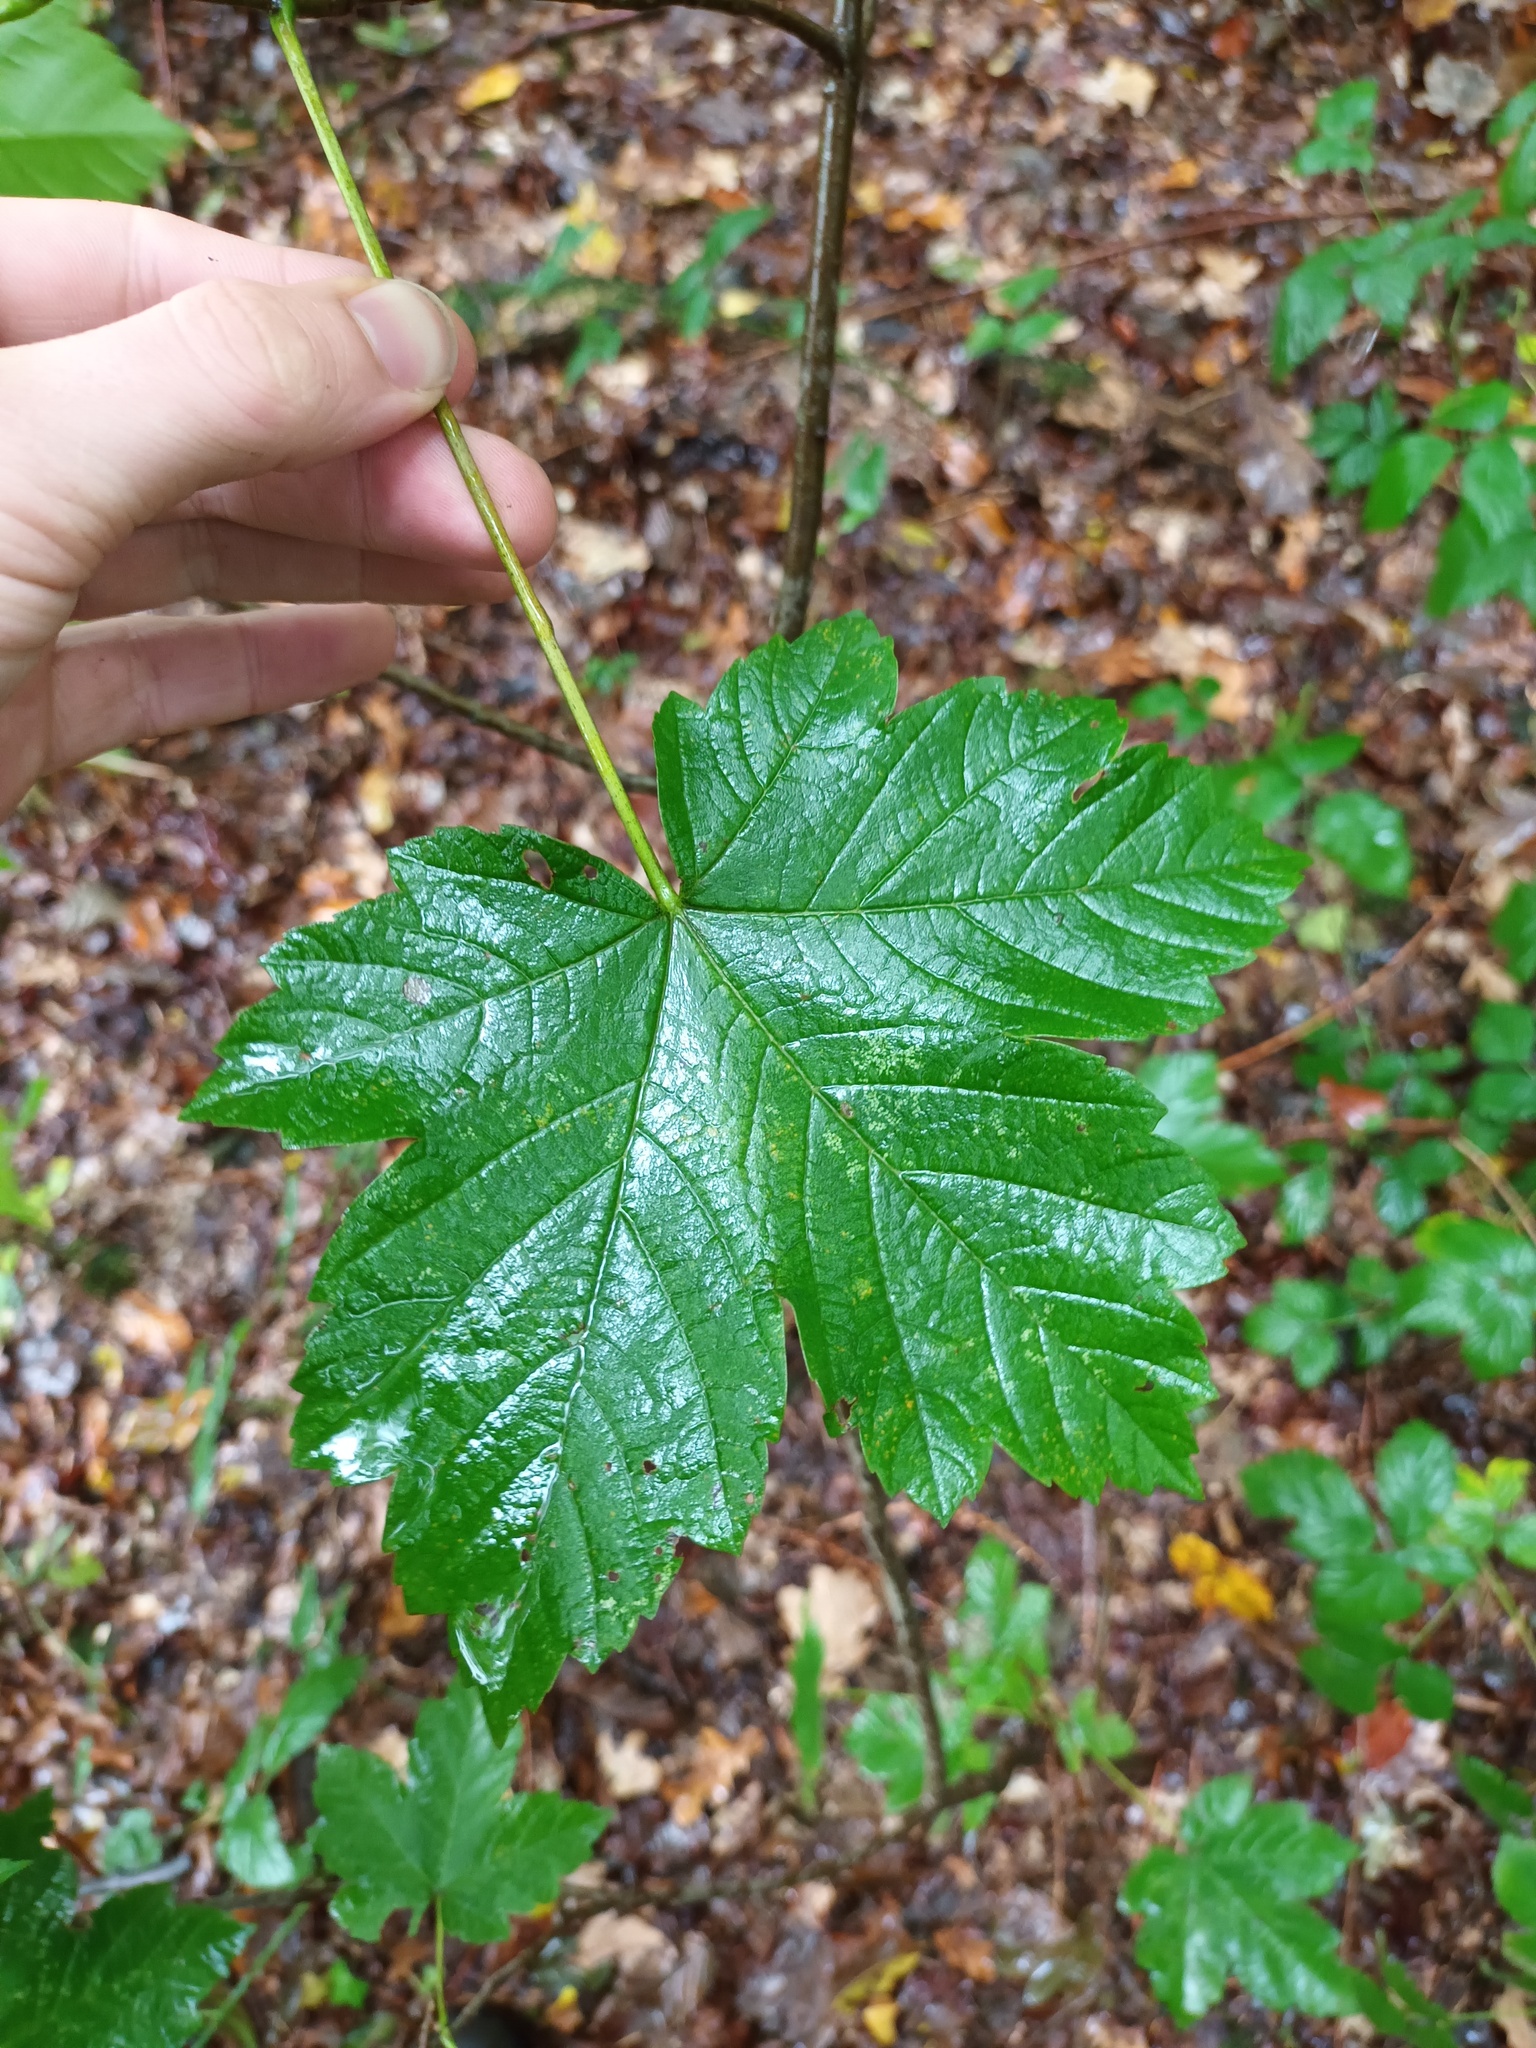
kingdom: Plantae
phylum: Tracheophyta
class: Magnoliopsida
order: Sapindales
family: Sapindaceae
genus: Acer
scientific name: Acer pseudoplatanus
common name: Sycamore
